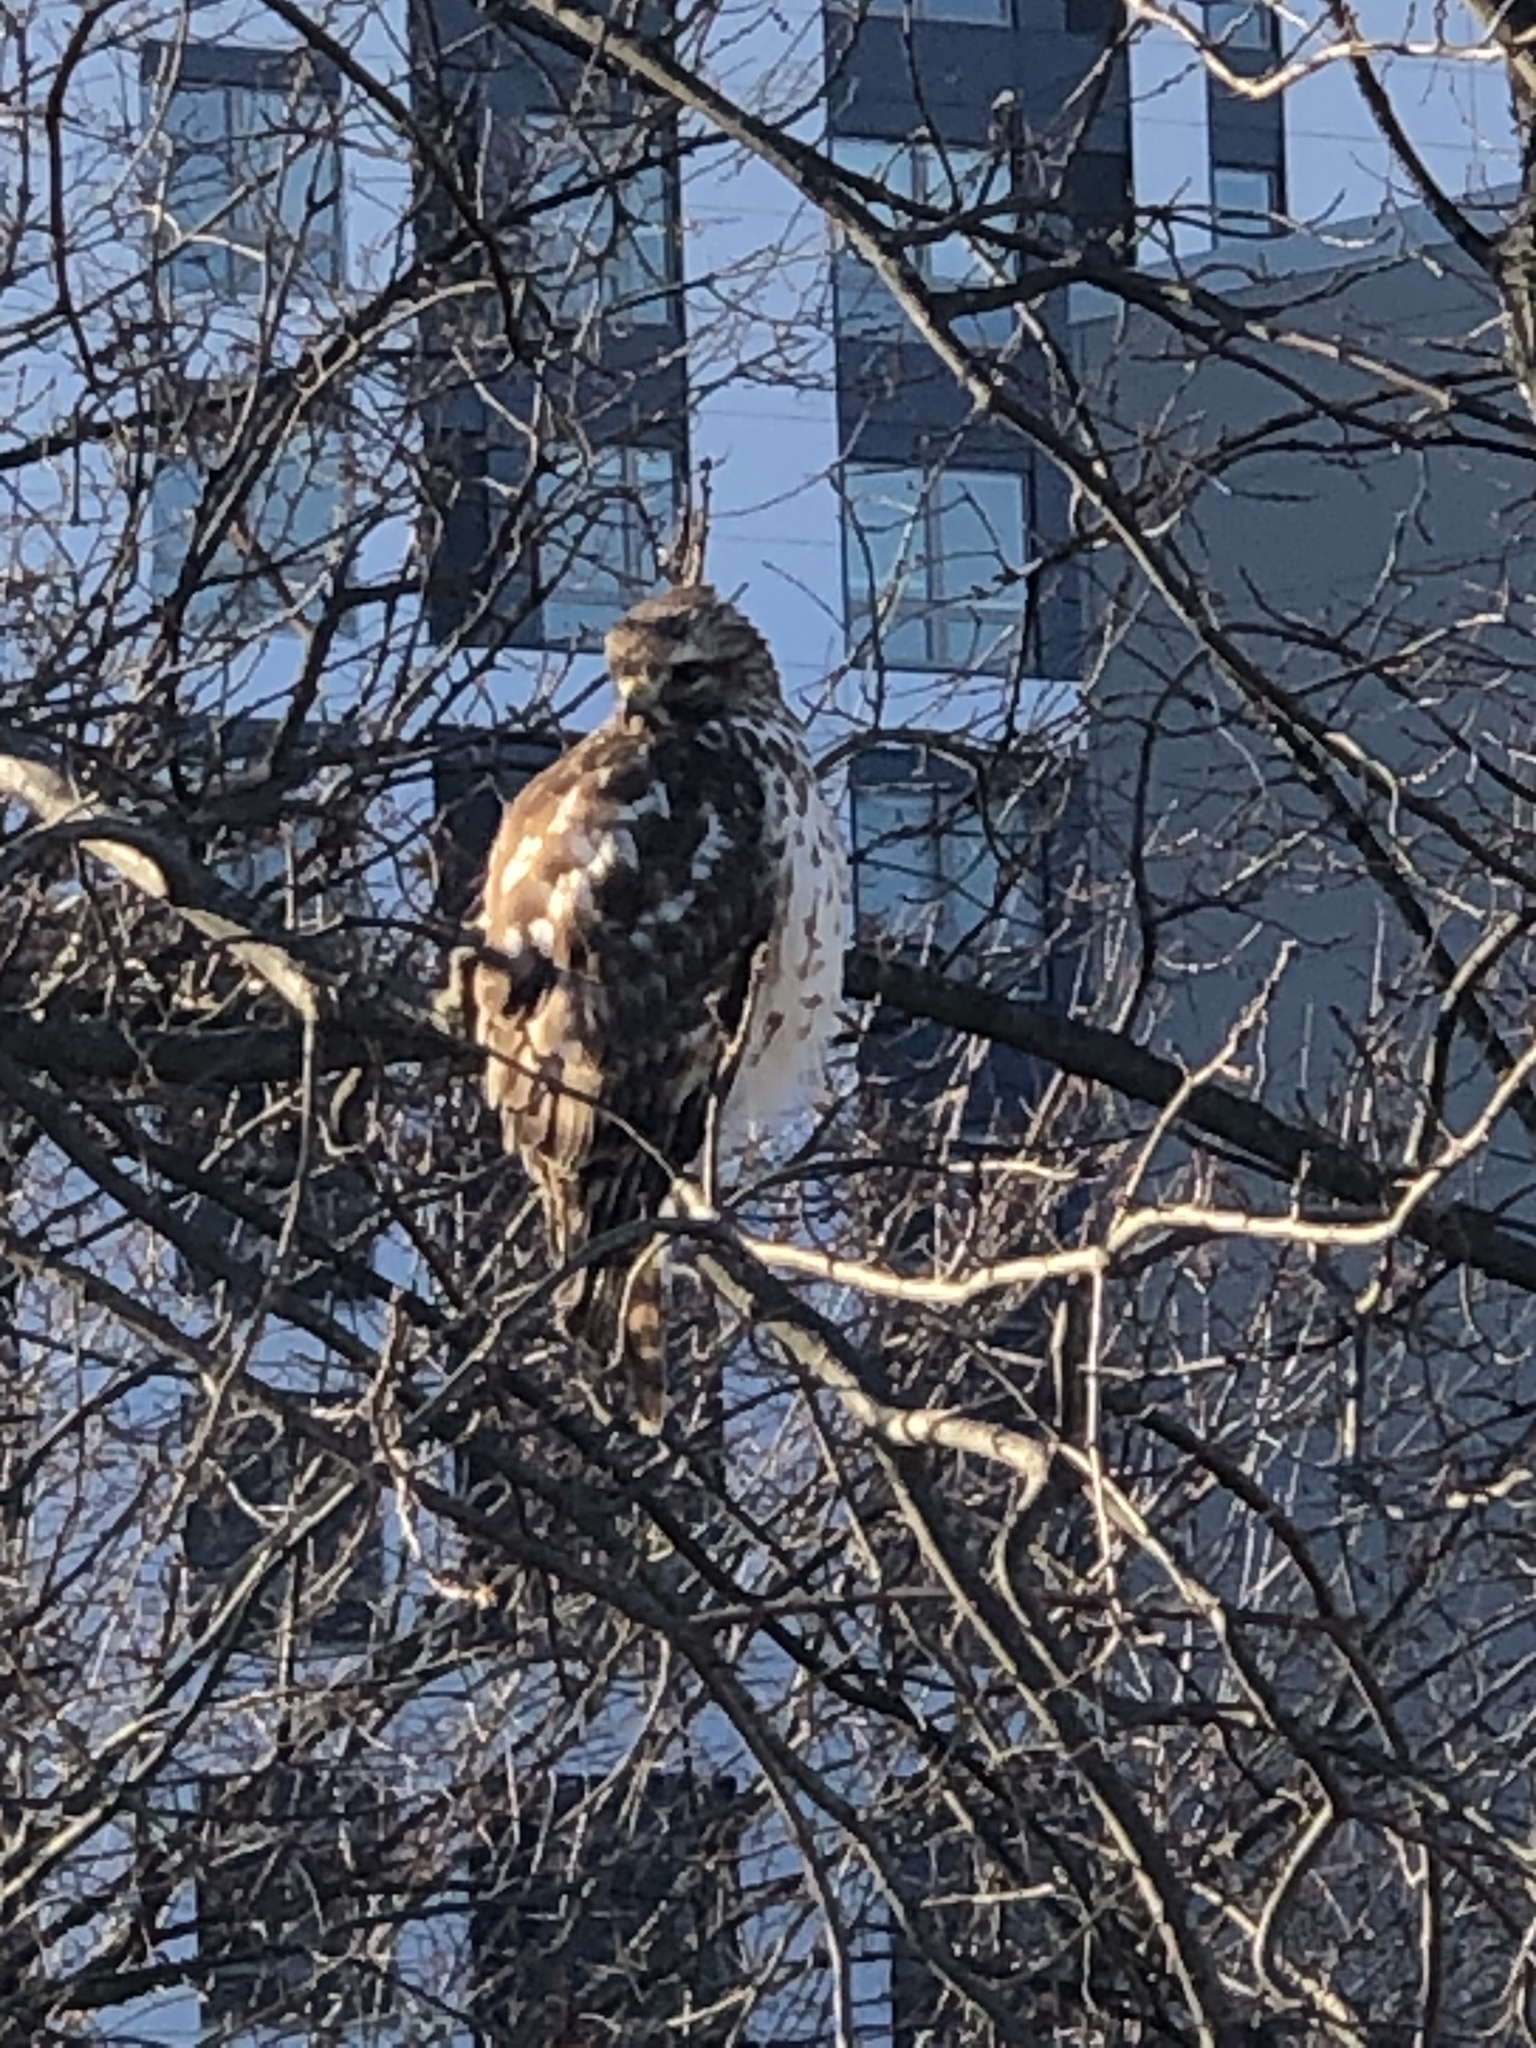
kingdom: Animalia
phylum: Chordata
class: Aves
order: Accipitriformes
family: Accipitridae
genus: Buteo
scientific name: Buteo lineatus
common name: Red-shouldered hawk
